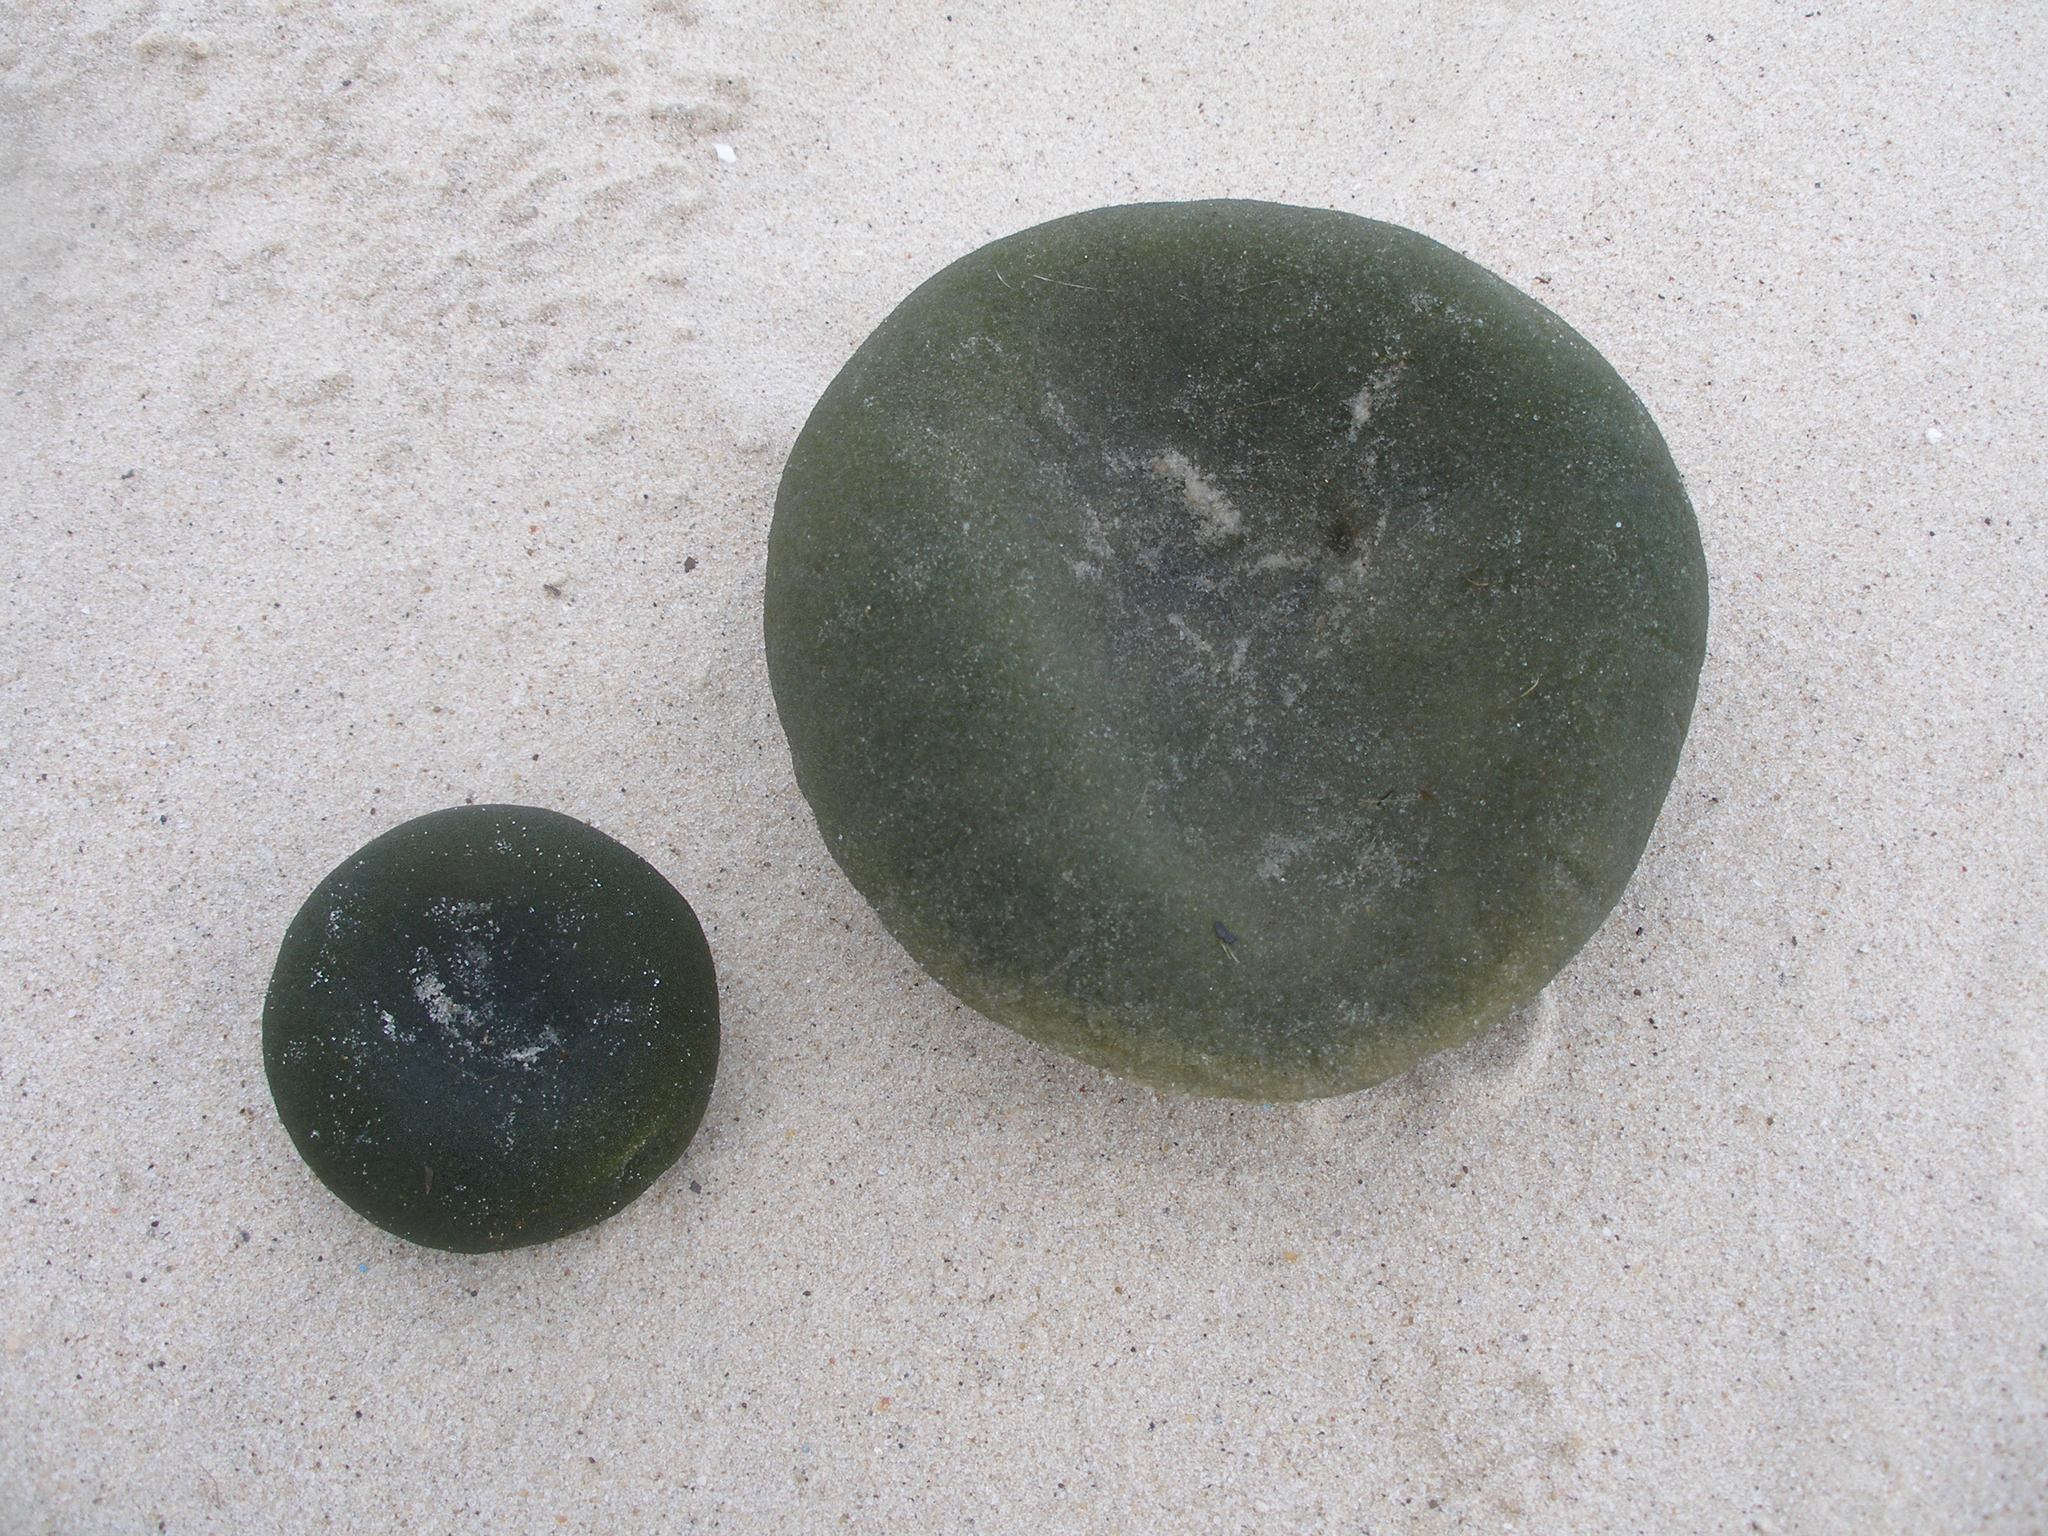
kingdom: Plantae
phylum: Chlorophyta
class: Ulvophyceae
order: Bryopsidales
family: Codiaceae
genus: Codium
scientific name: Codium bursa
